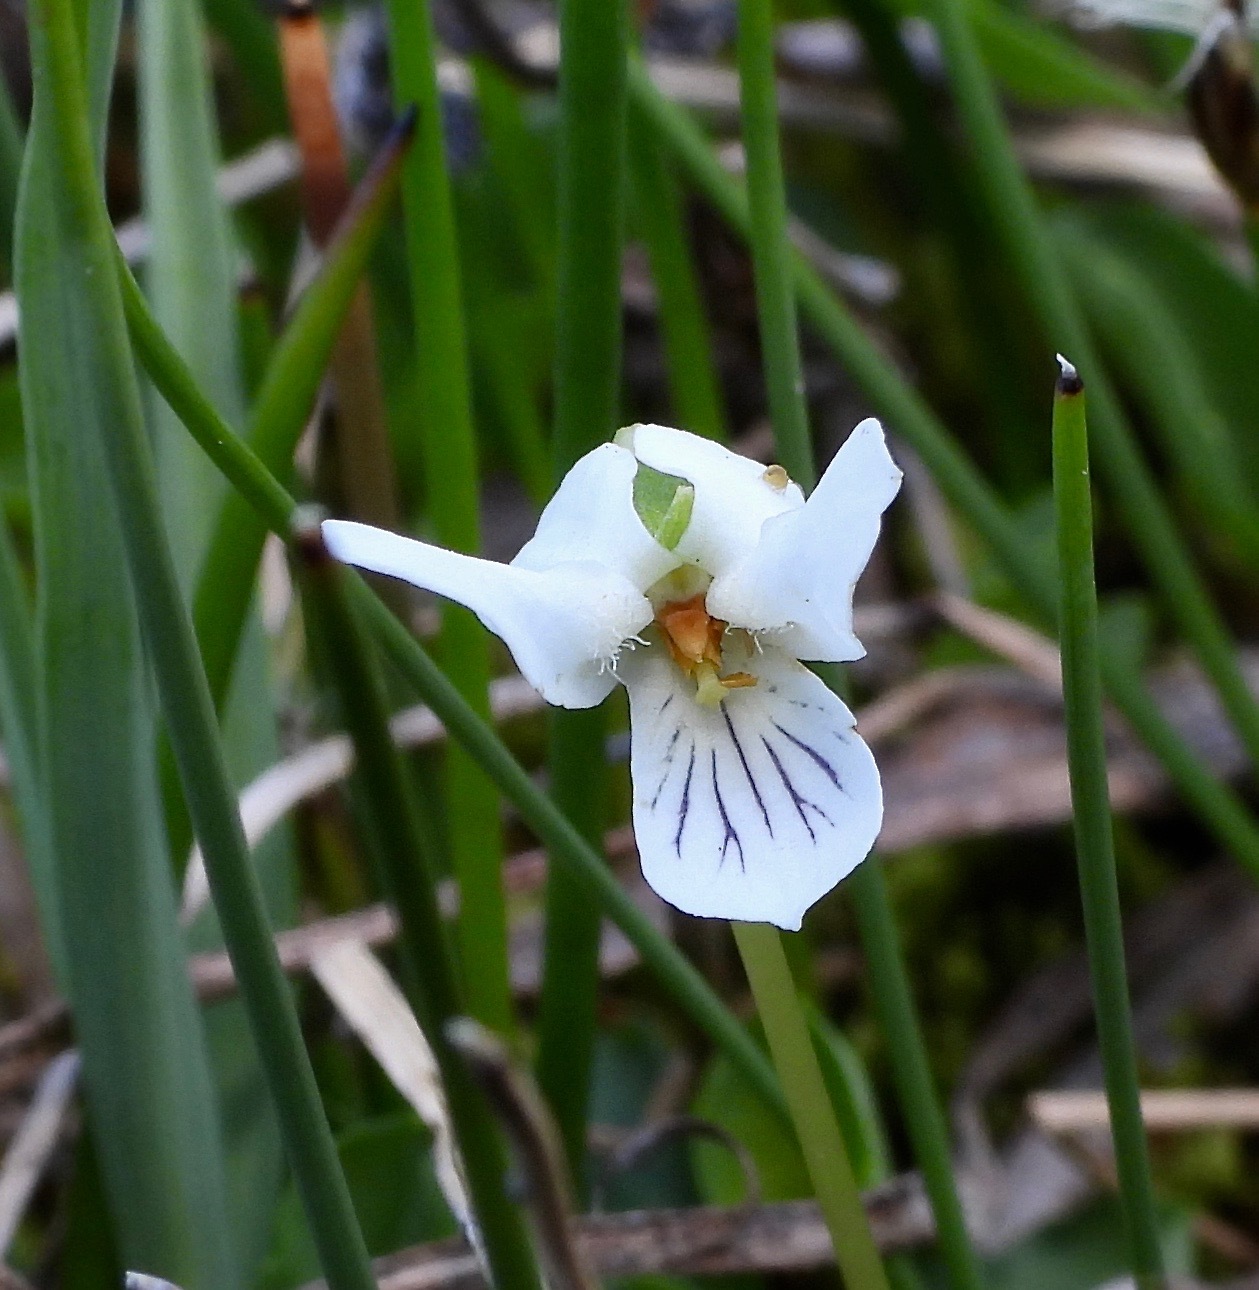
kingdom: Plantae
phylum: Tracheophyta
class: Magnoliopsida
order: Malpighiales
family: Violaceae
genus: Viola
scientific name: Viola macloskeyi
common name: Macloskey's violet
